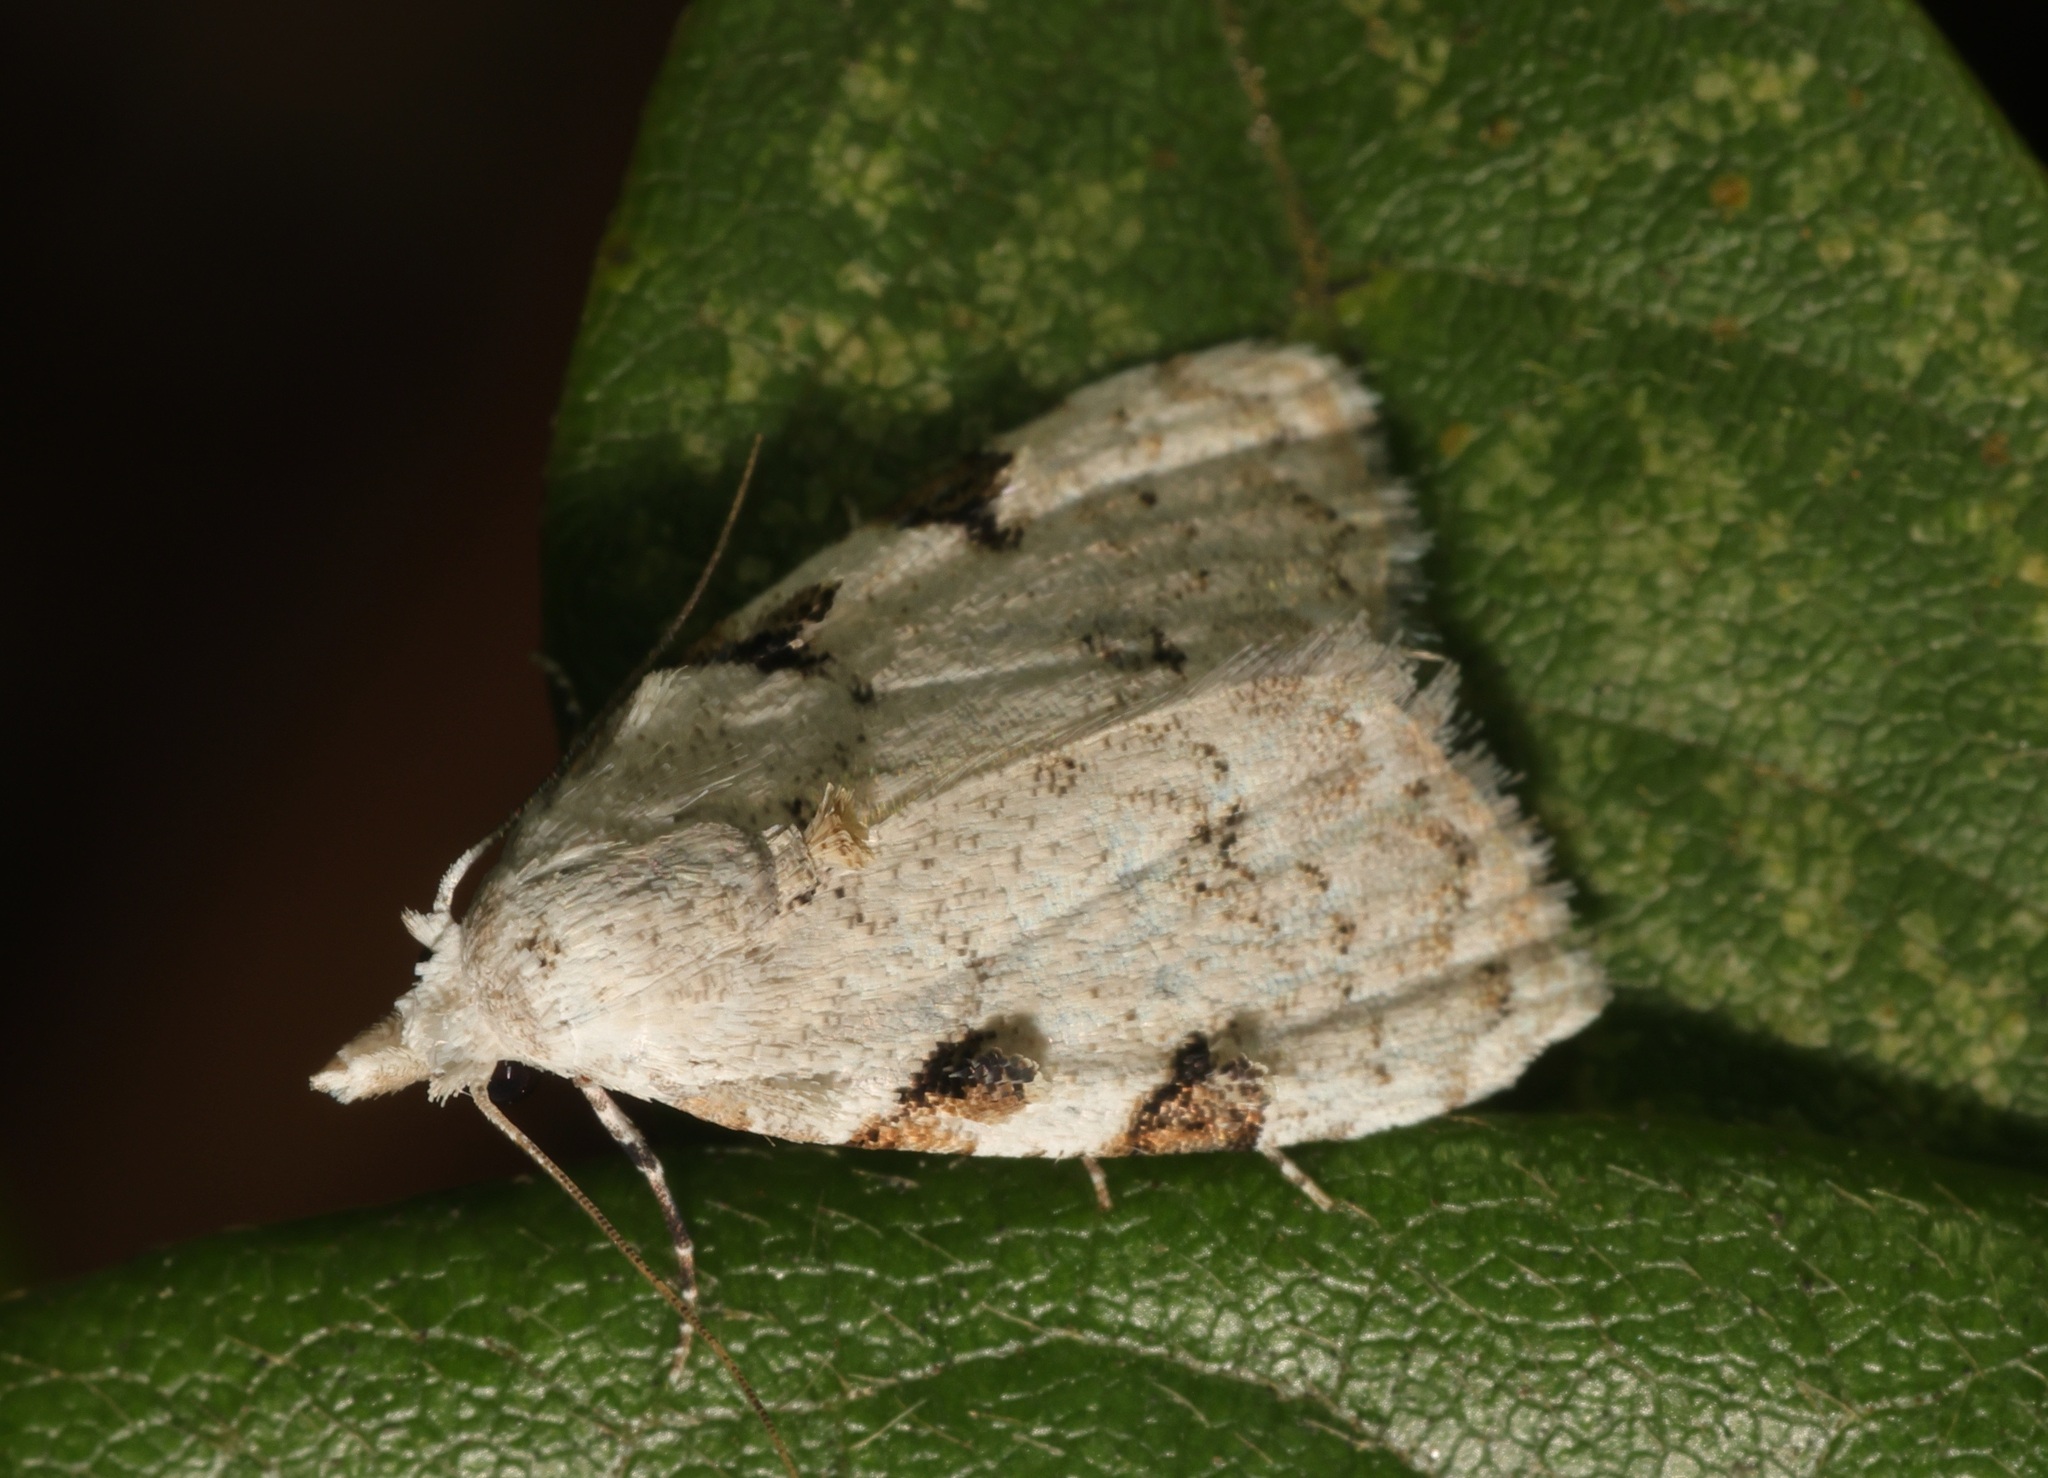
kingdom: Animalia
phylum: Arthropoda
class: Insecta
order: Lepidoptera
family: Nolidae
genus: Nola
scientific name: Nola pascua
